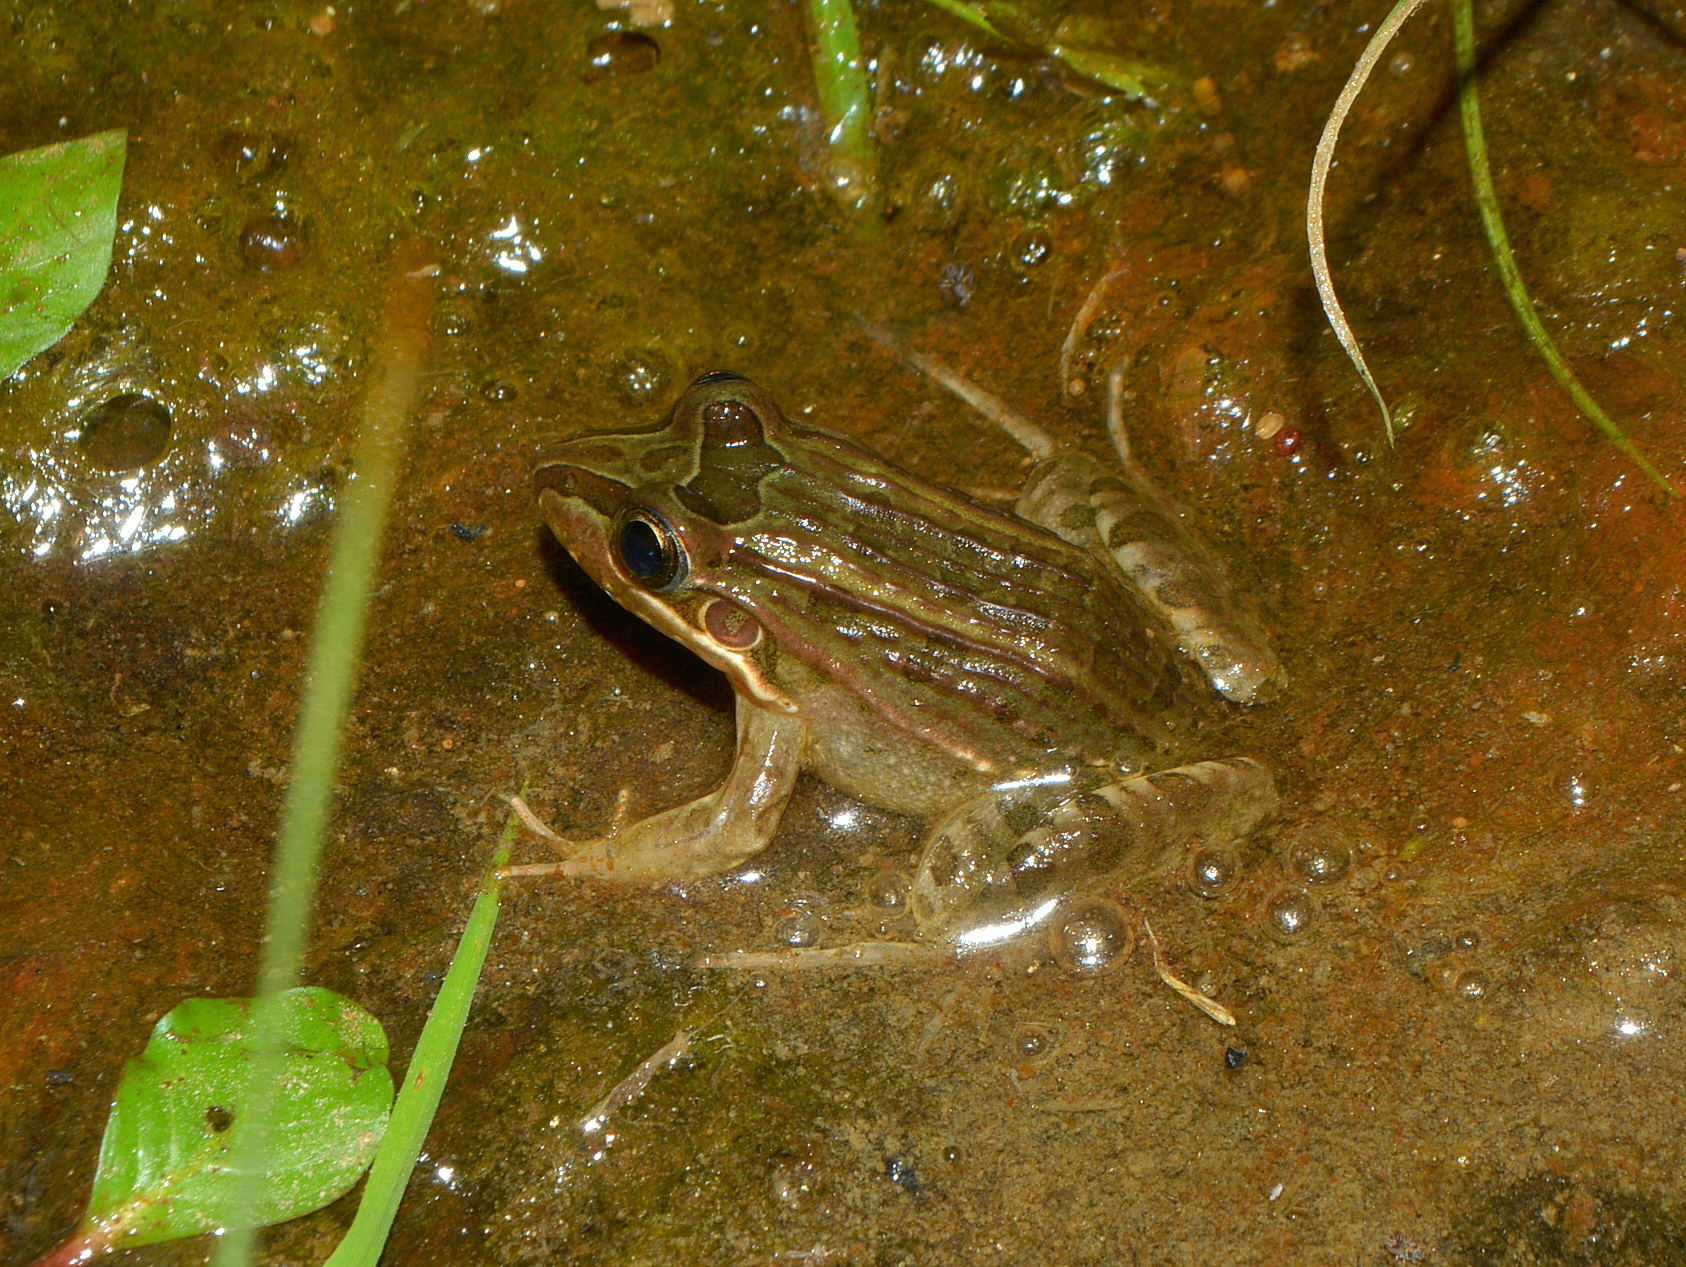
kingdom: Animalia
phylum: Chordata
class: Amphibia
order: Anura
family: Leptodactylidae
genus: Leptodactylus
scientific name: Leptodactylus paranaru
